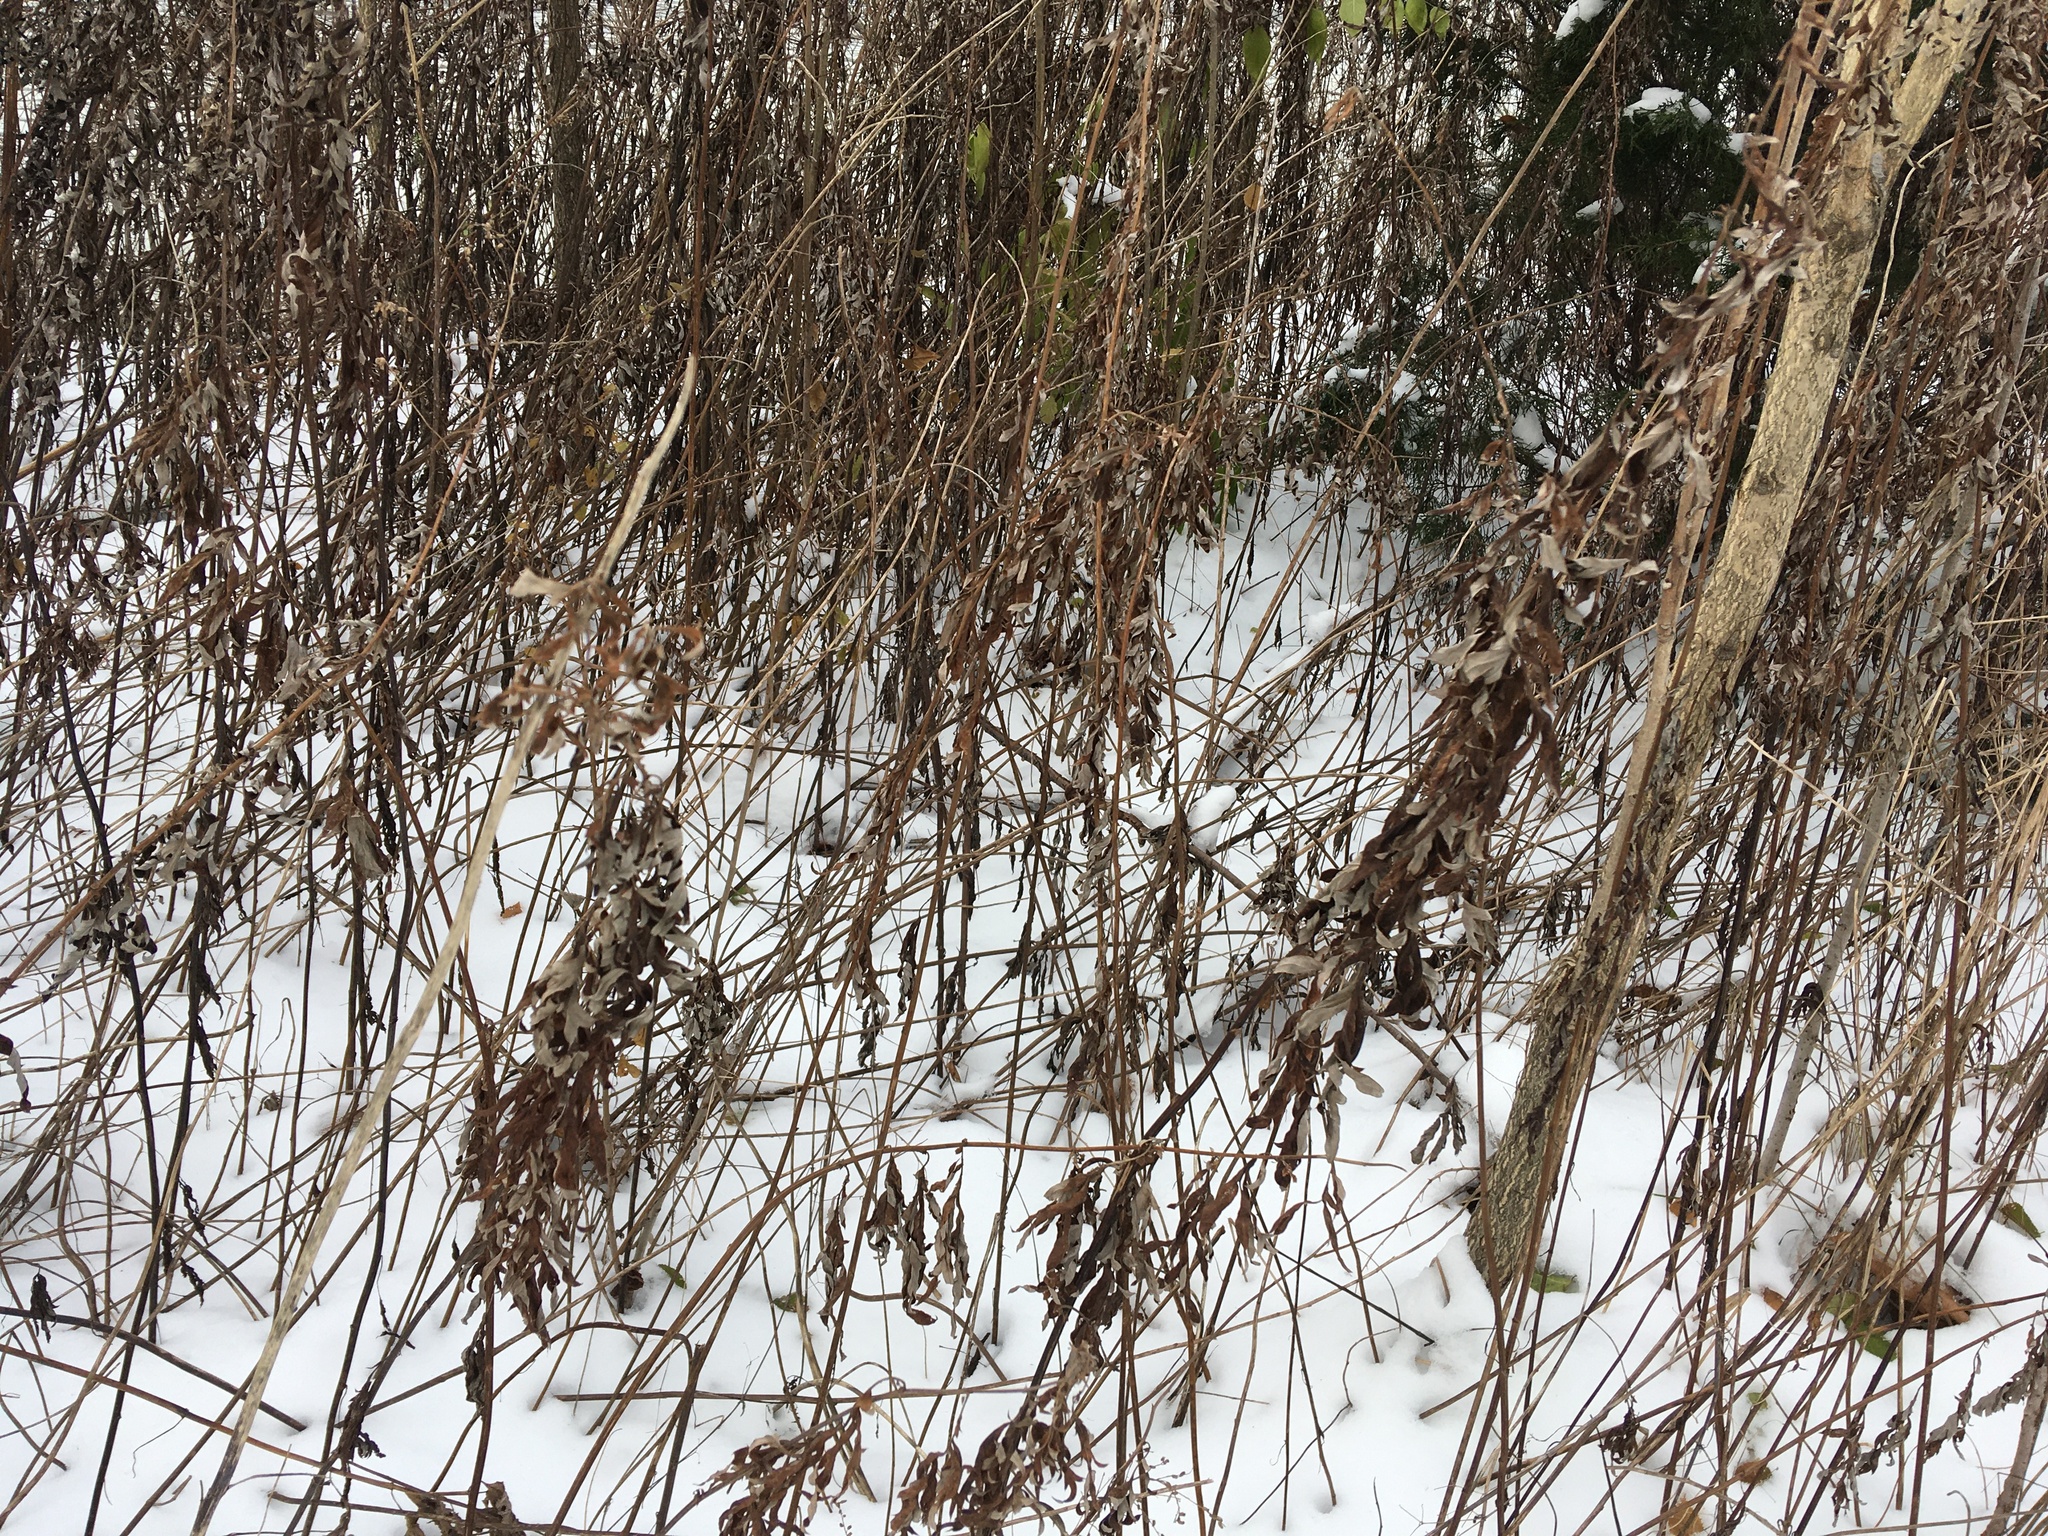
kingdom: Plantae
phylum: Tracheophyta
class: Magnoliopsida
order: Asterales
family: Asteraceae
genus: Artemisia
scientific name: Artemisia vulgaris
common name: Mugwort
